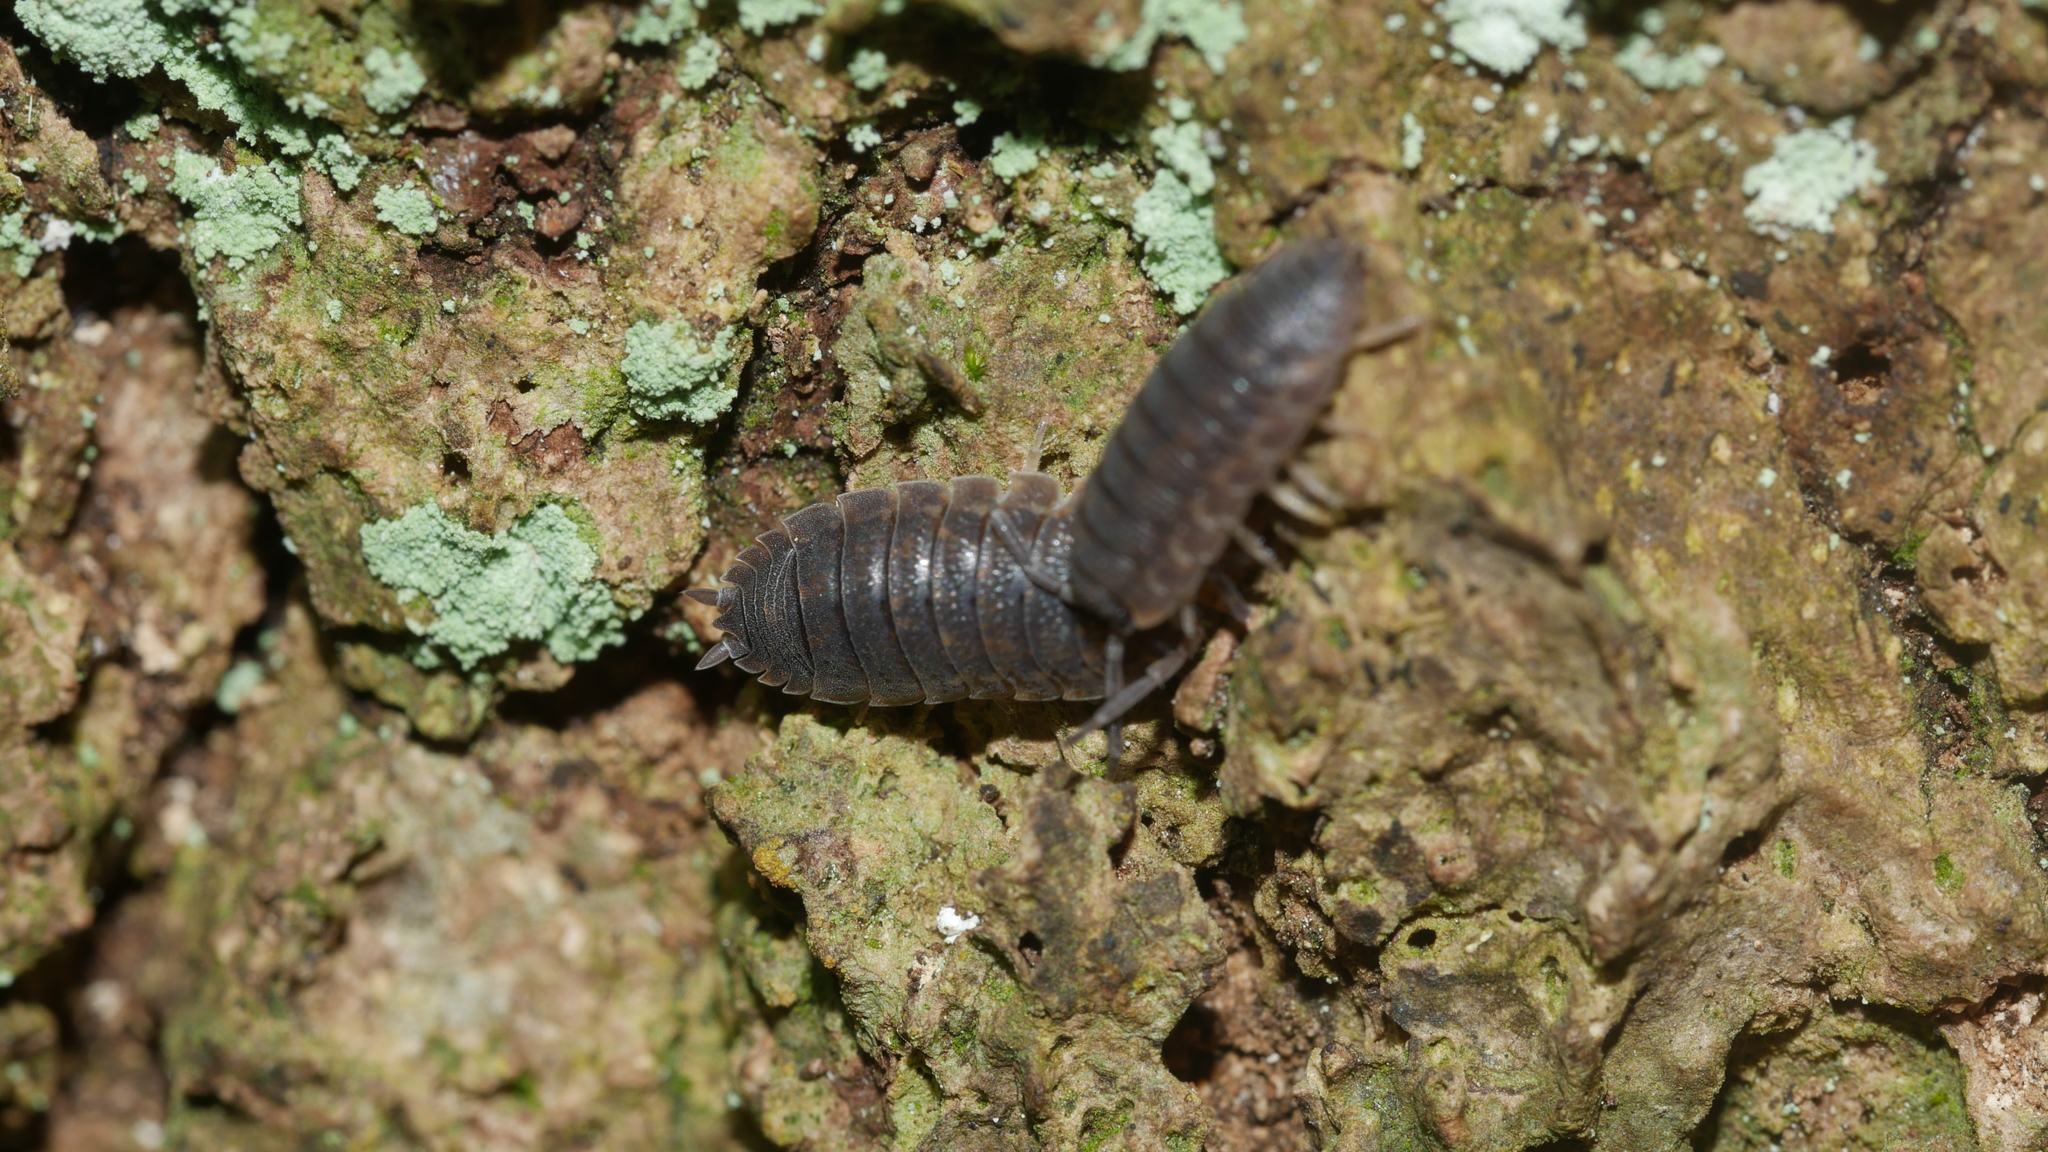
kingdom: Animalia
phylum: Arthropoda
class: Malacostraca
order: Isopoda
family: Porcellionidae
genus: Porcellio
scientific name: Porcellio scaber
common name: Common rough woodlouse
